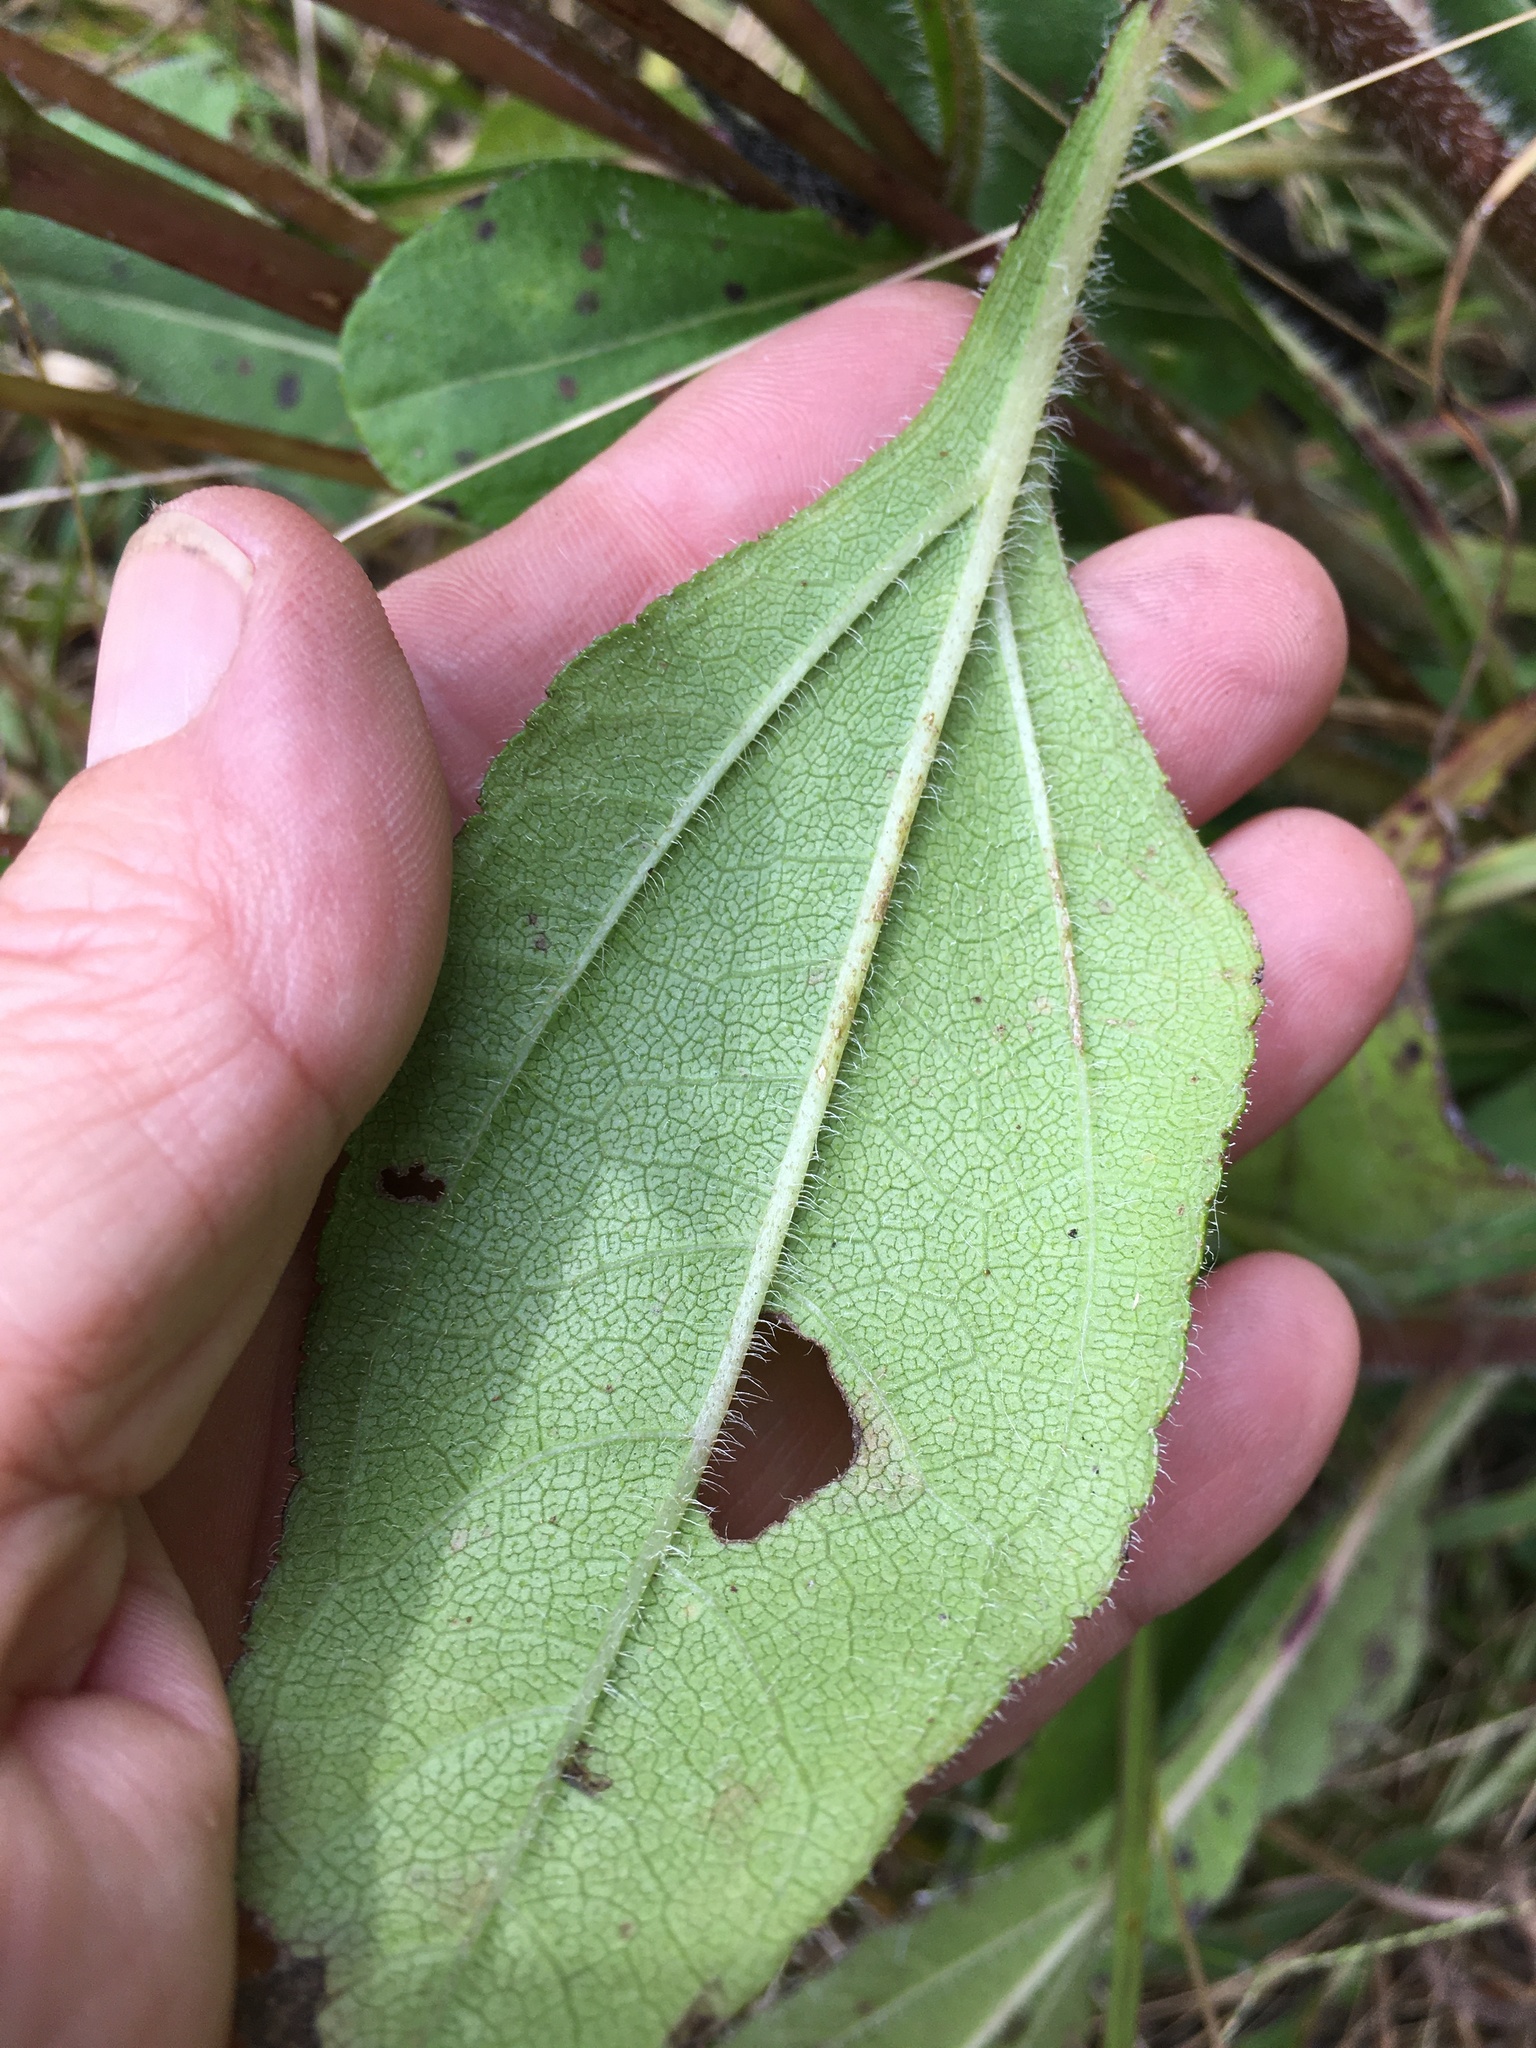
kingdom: Plantae
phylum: Tracheophyta
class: Magnoliopsida
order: Asterales
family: Asteraceae
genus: Helianthus
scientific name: Helianthus atrorubens
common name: Dark-eyed sunflower
